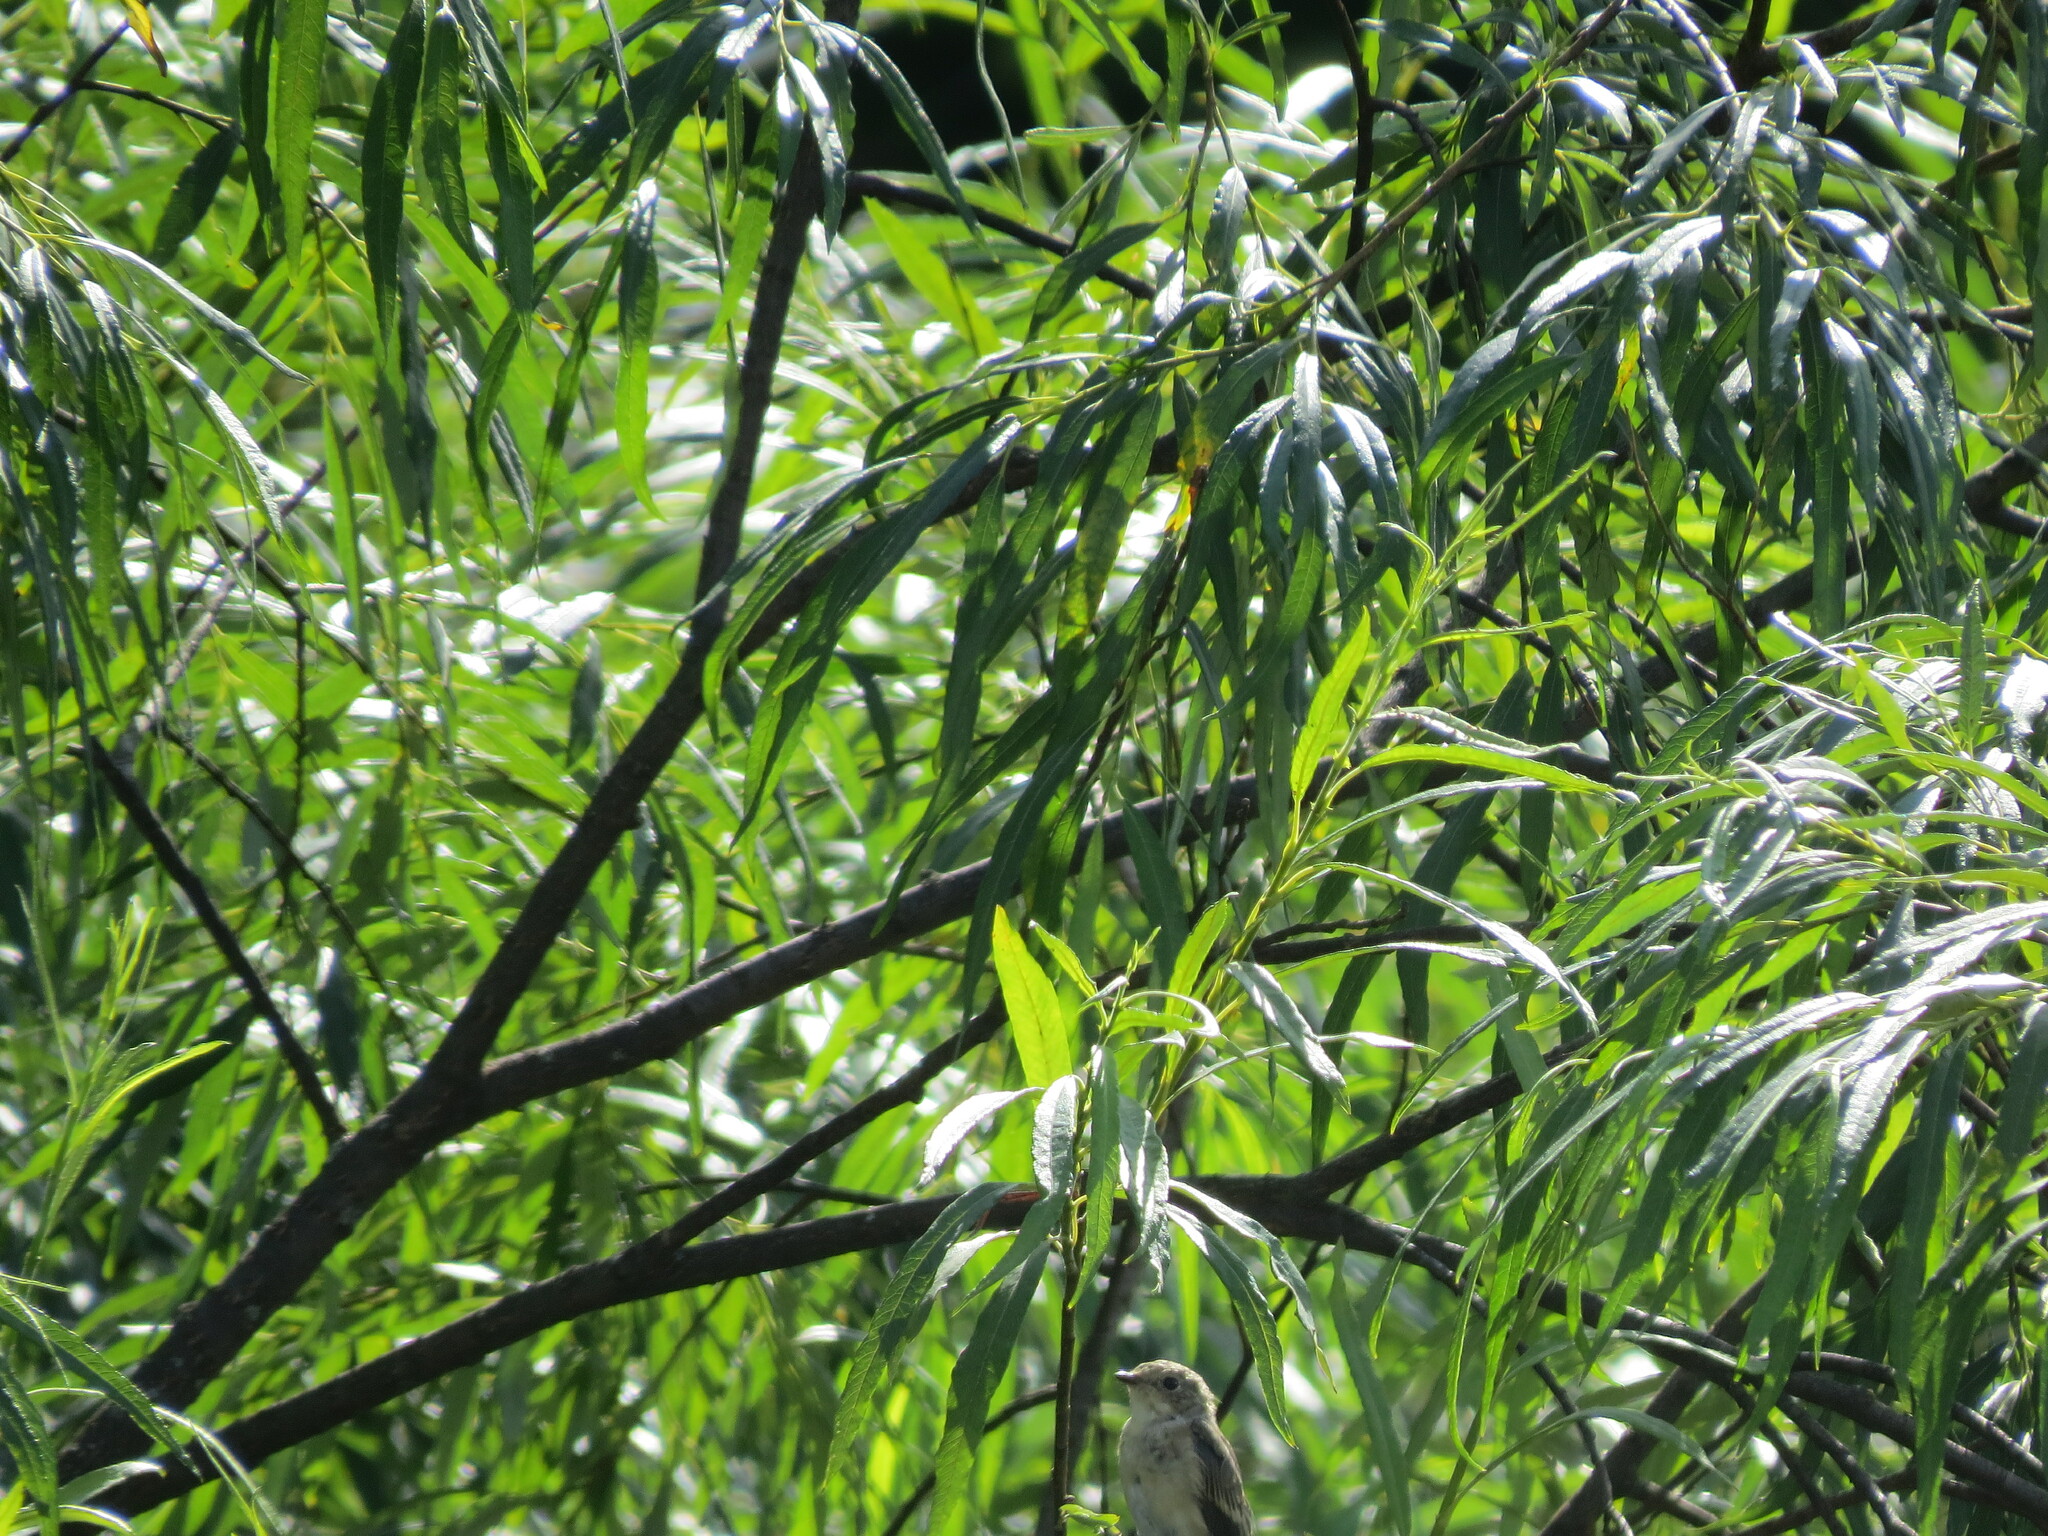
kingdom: Animalia
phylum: Chordata
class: Aves
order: Passeriformes
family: Muscicapidae
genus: Muscicapa
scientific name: Muscicapa striata
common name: Spotted flycatcher
